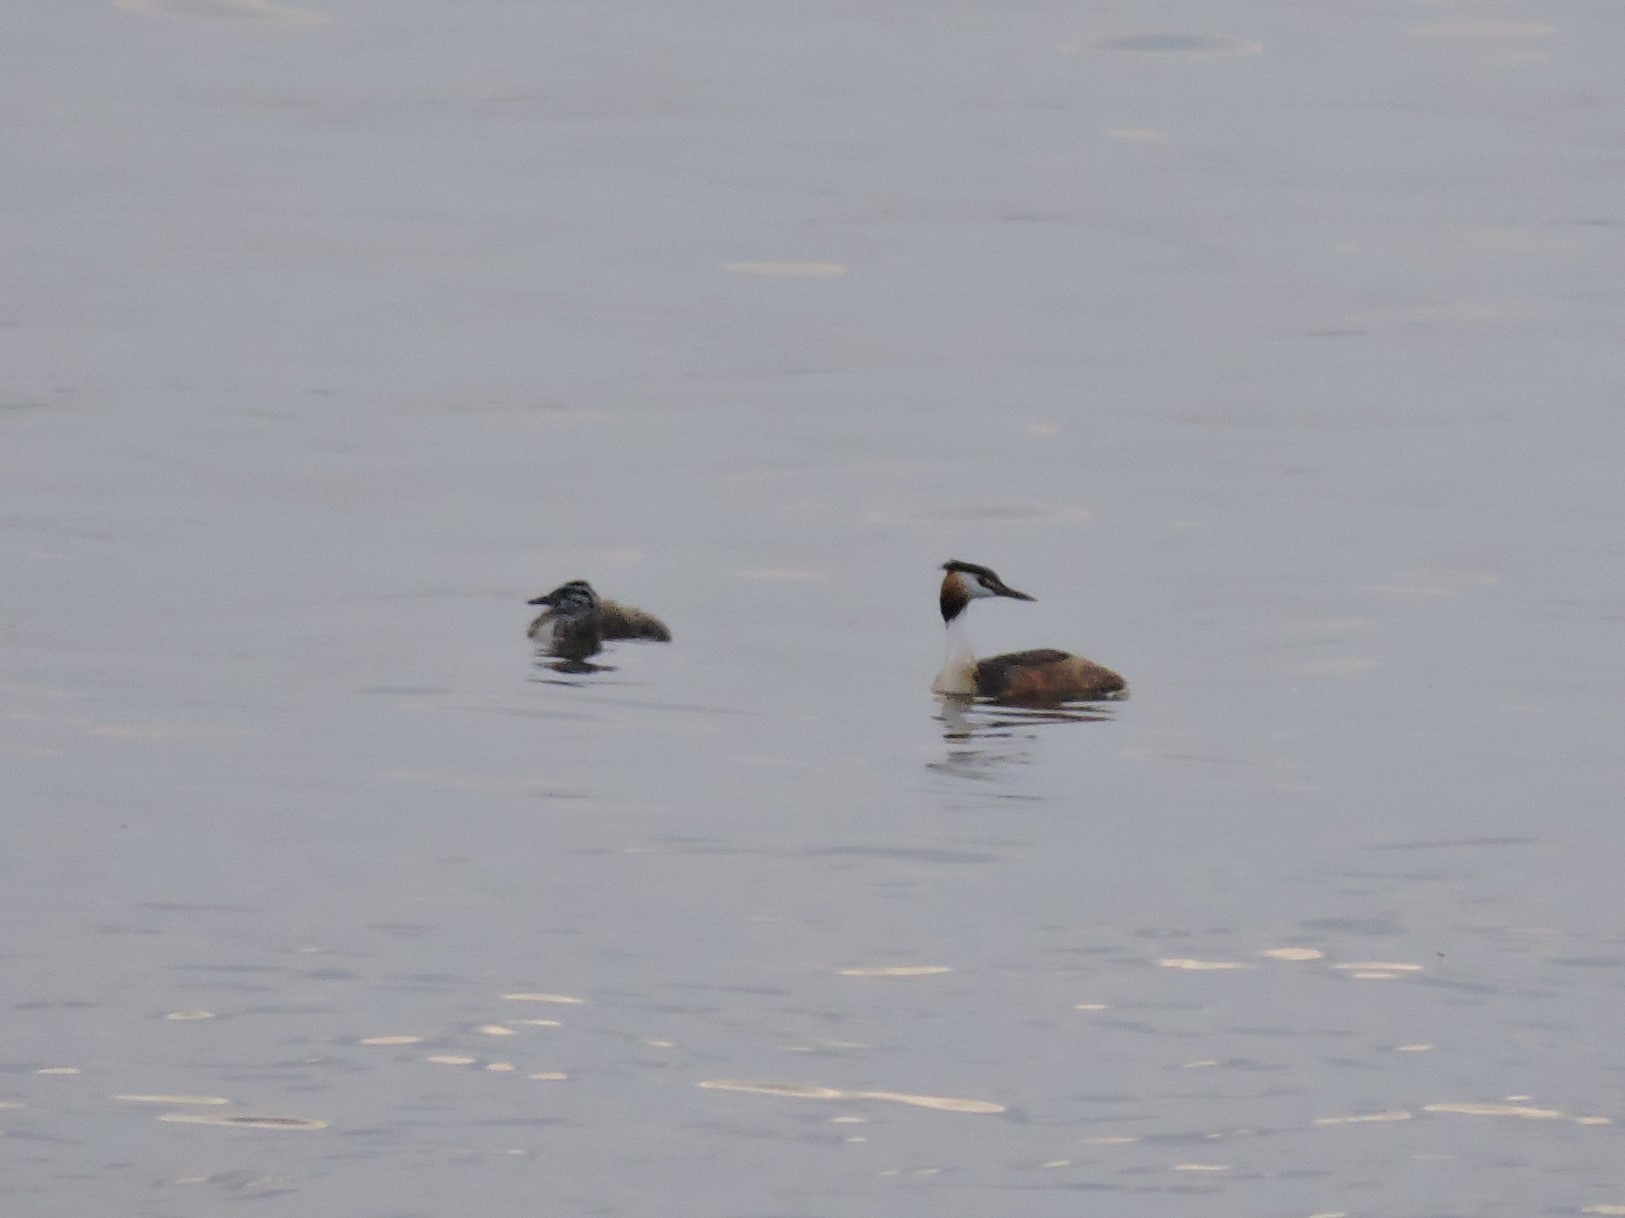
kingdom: Animalia
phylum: Chordata
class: Aves
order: Podicipediformes
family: Podicipedidae
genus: Podiceps
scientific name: Podiceps cristatus
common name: Great crested grebe
